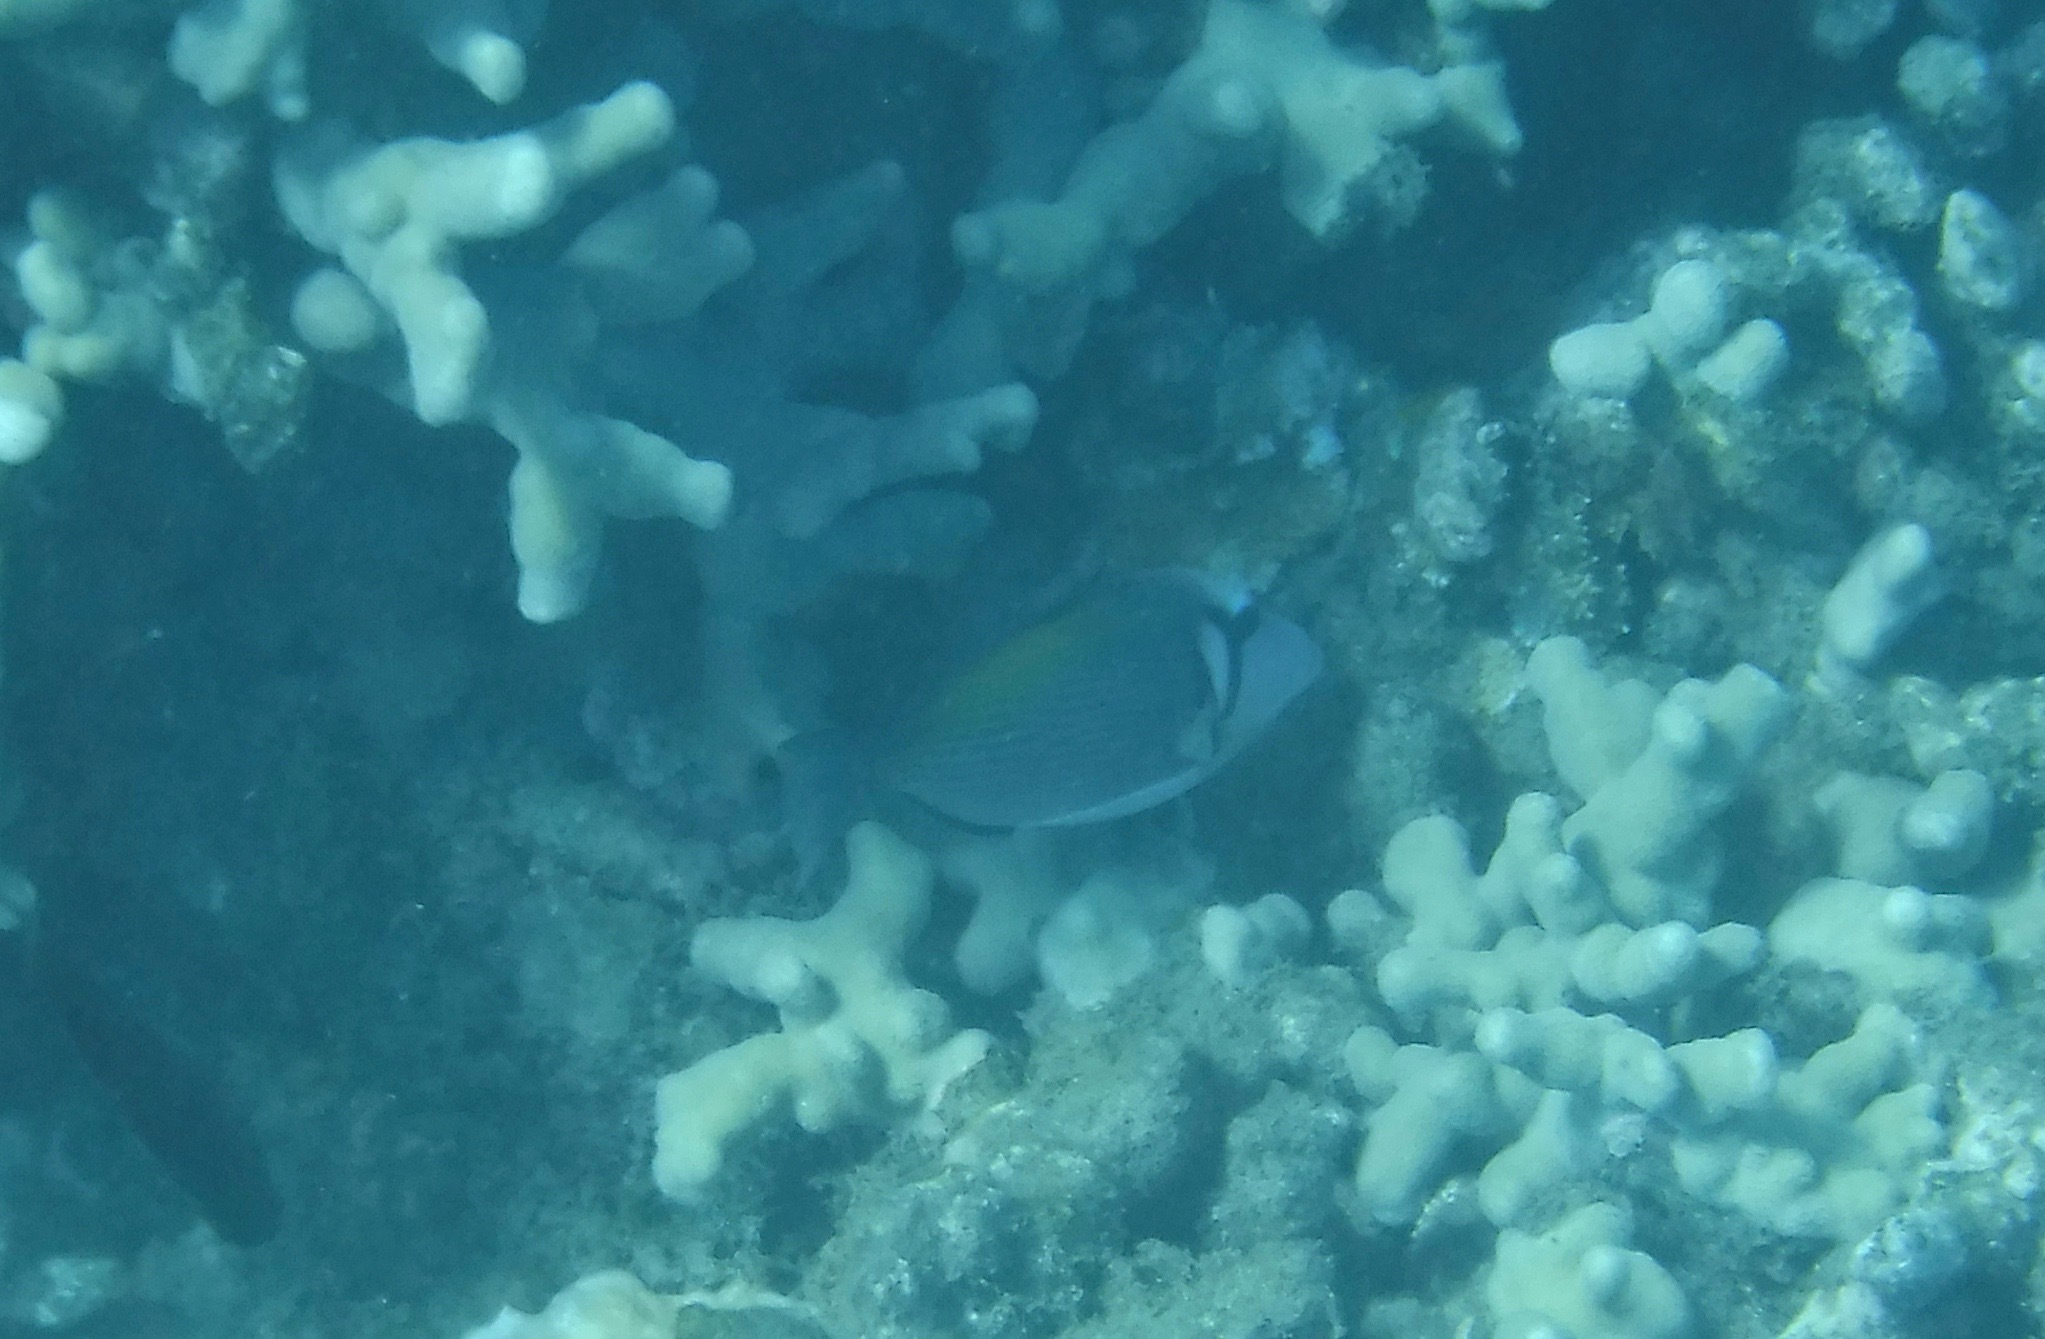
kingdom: Animalia
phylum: Chordata
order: Tetraodontiformes
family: Balistidae
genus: Sufflamen
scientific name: Sufflamen bursa
